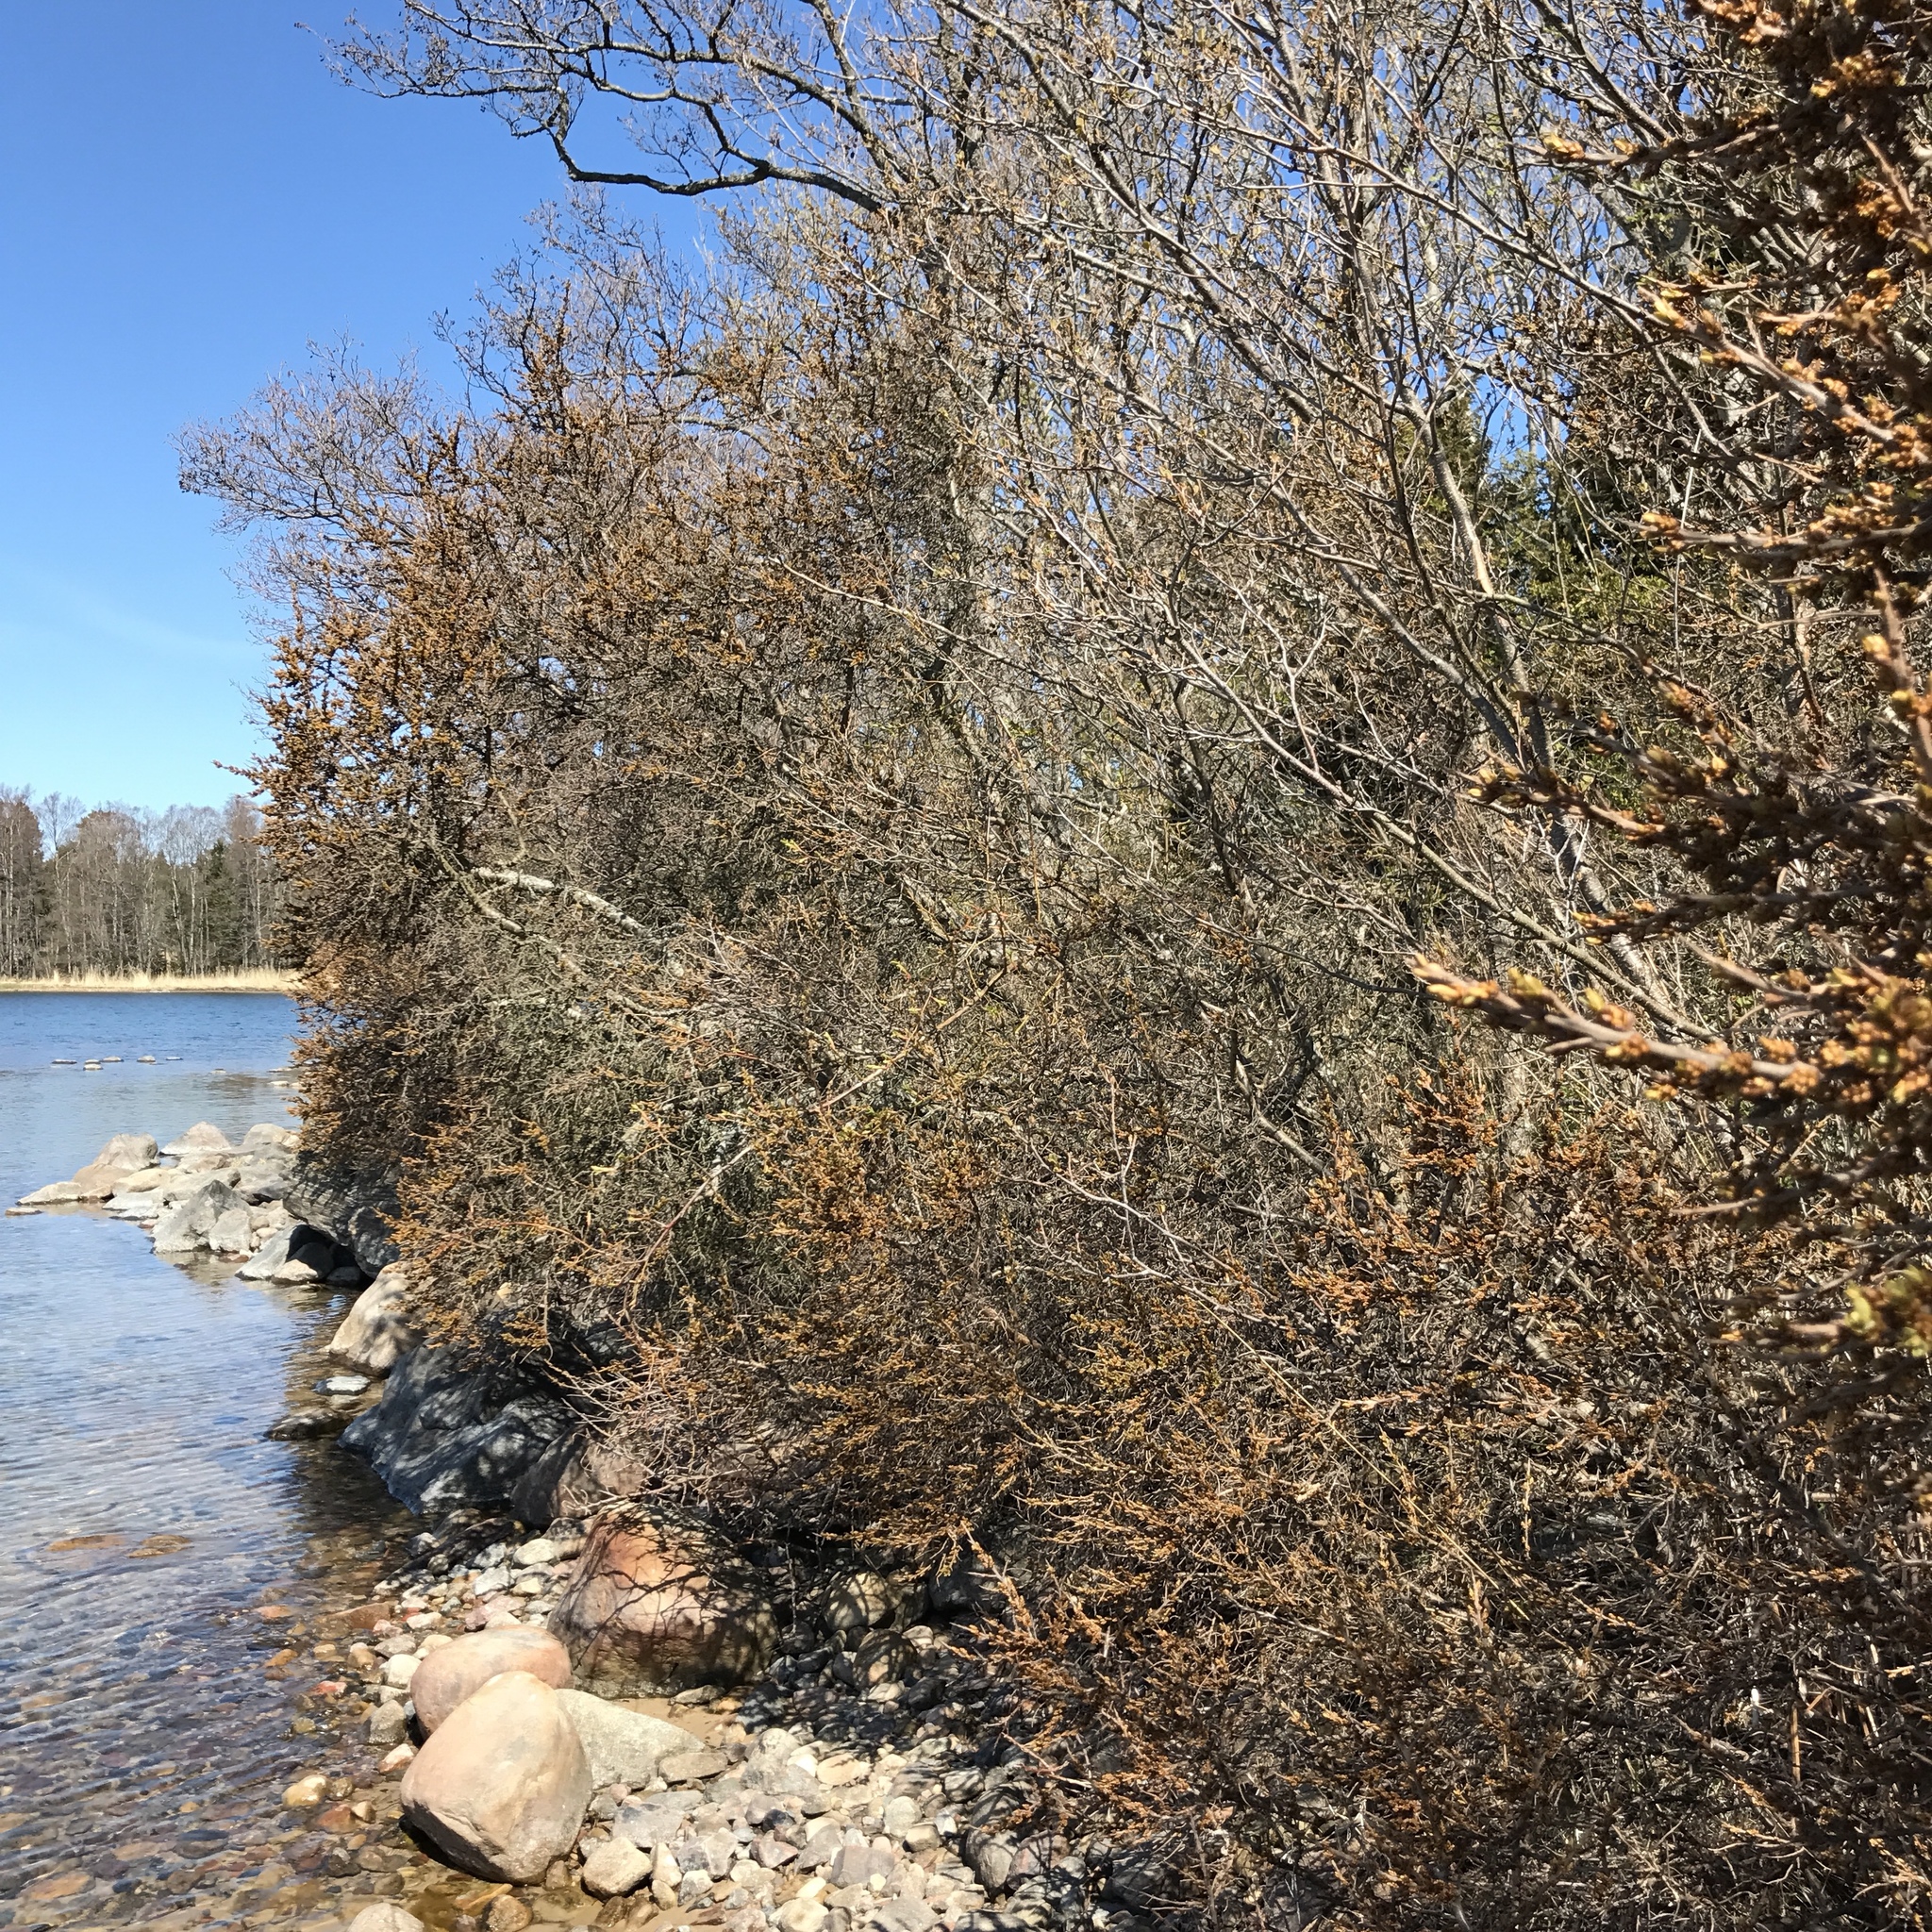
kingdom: Plantae
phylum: Tracheophyta
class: Magnoliopsida
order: Rosales
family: Elaeagnaceae
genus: Hippophae
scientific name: Hippophae rhamnoides
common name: Sea-buckthorn
